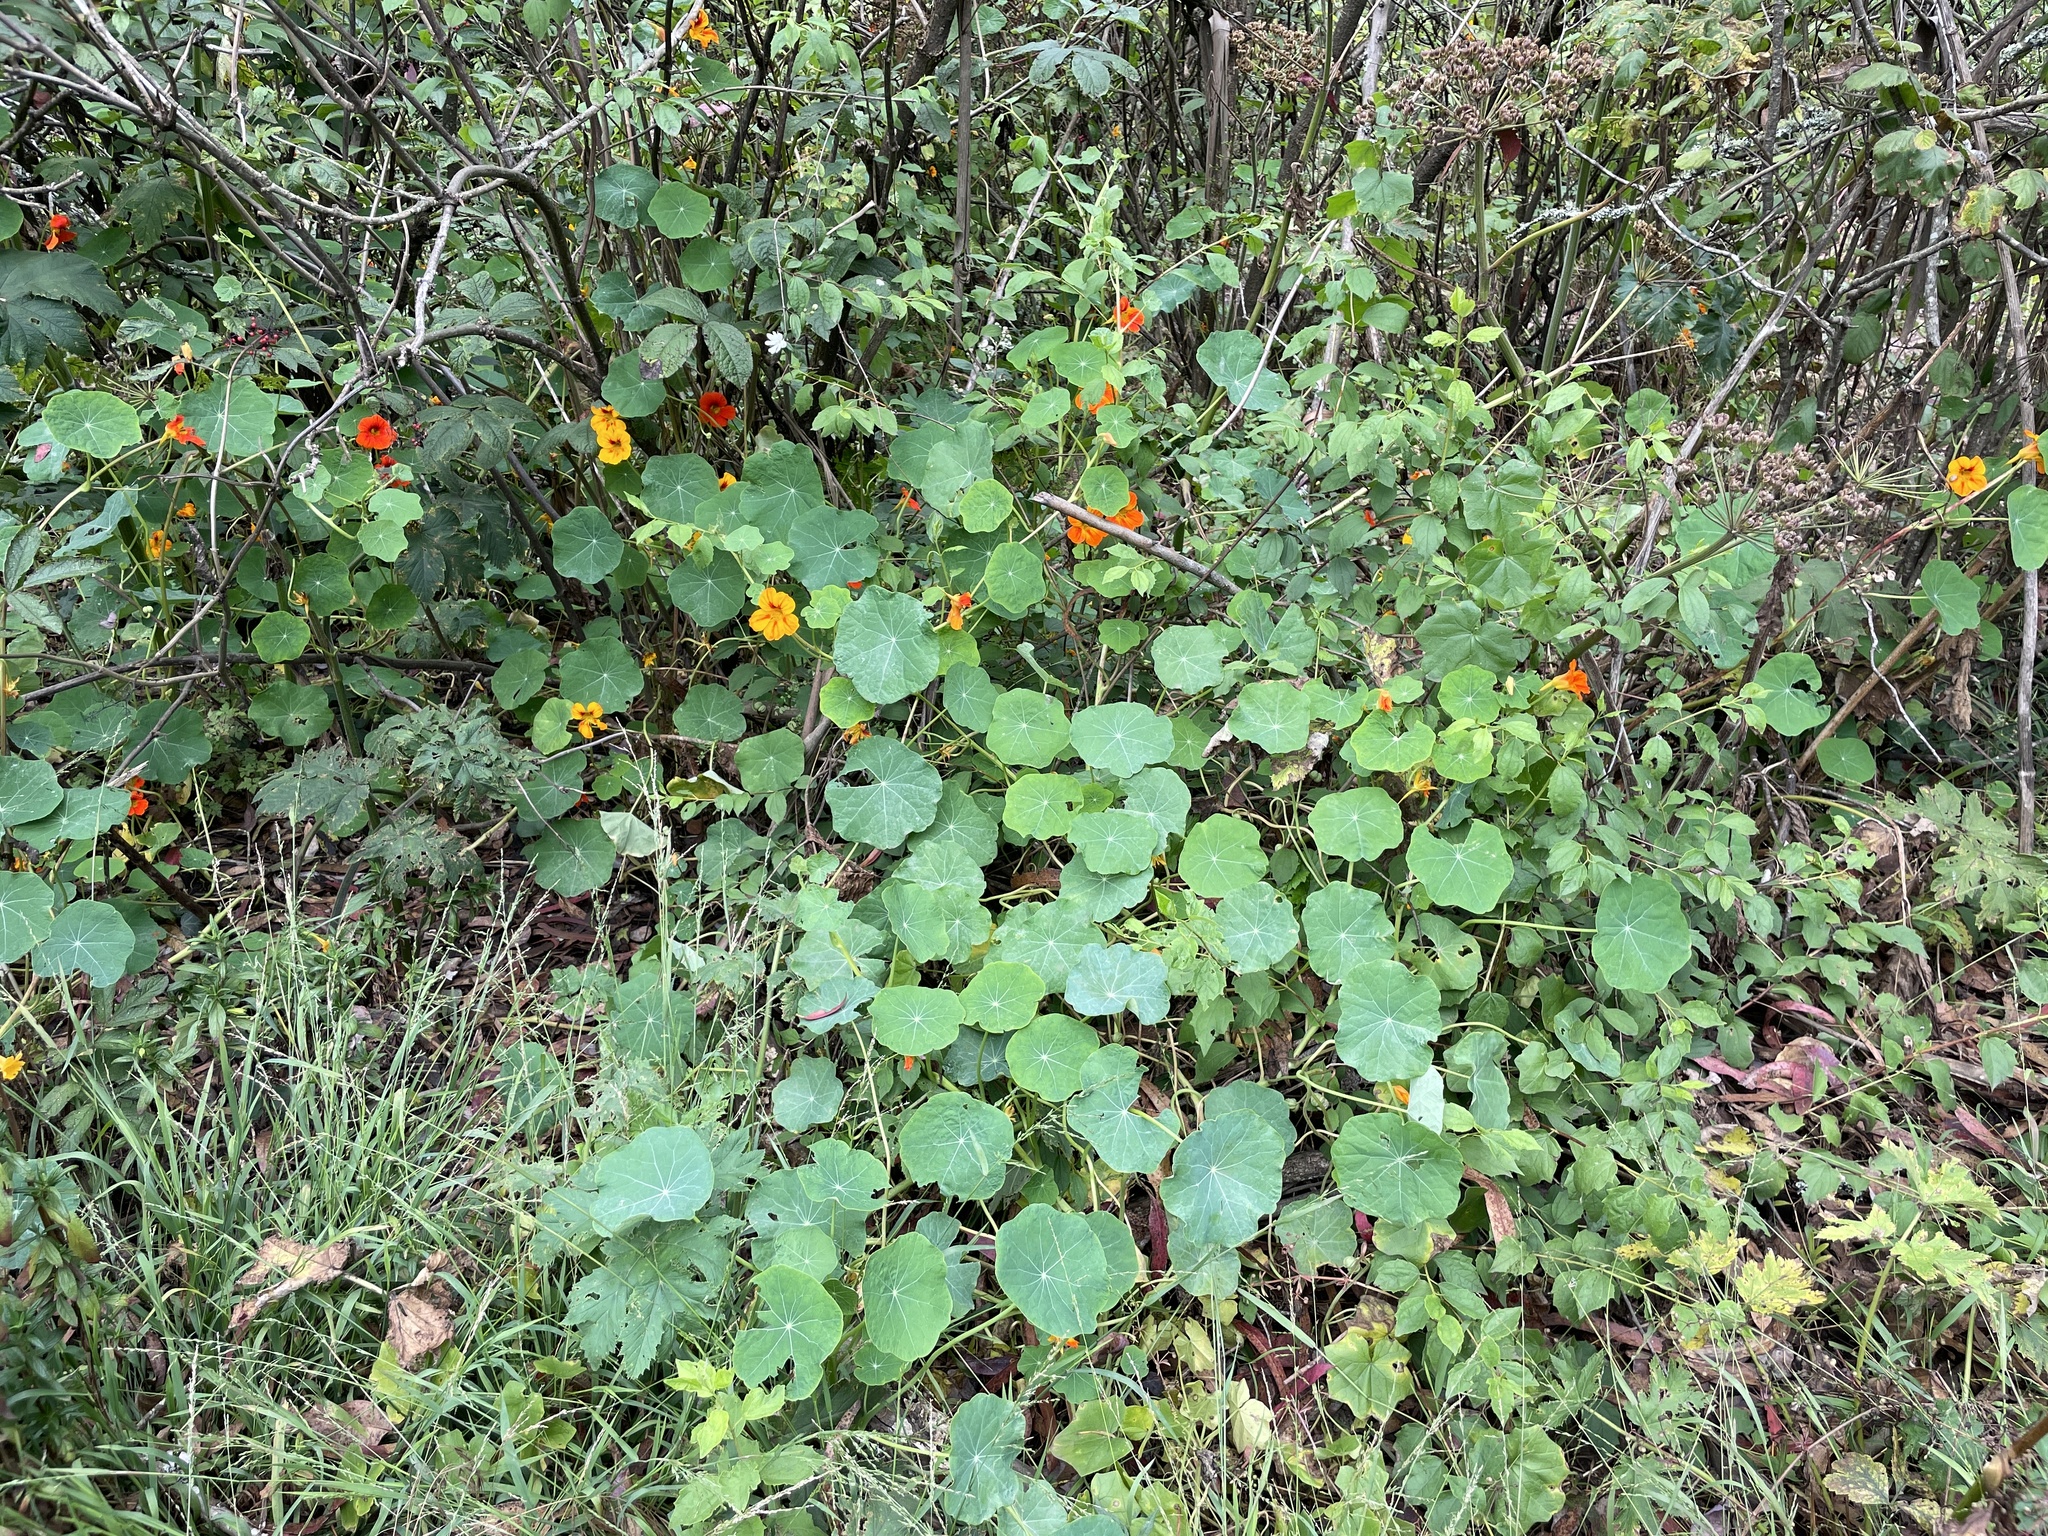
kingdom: Plantae
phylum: Tracheophyta
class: Magnoliopsida
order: Brassicales
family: Tropaeolaceae
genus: Tropaeolum
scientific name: Tropaeolum majus
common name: Nasturtium
